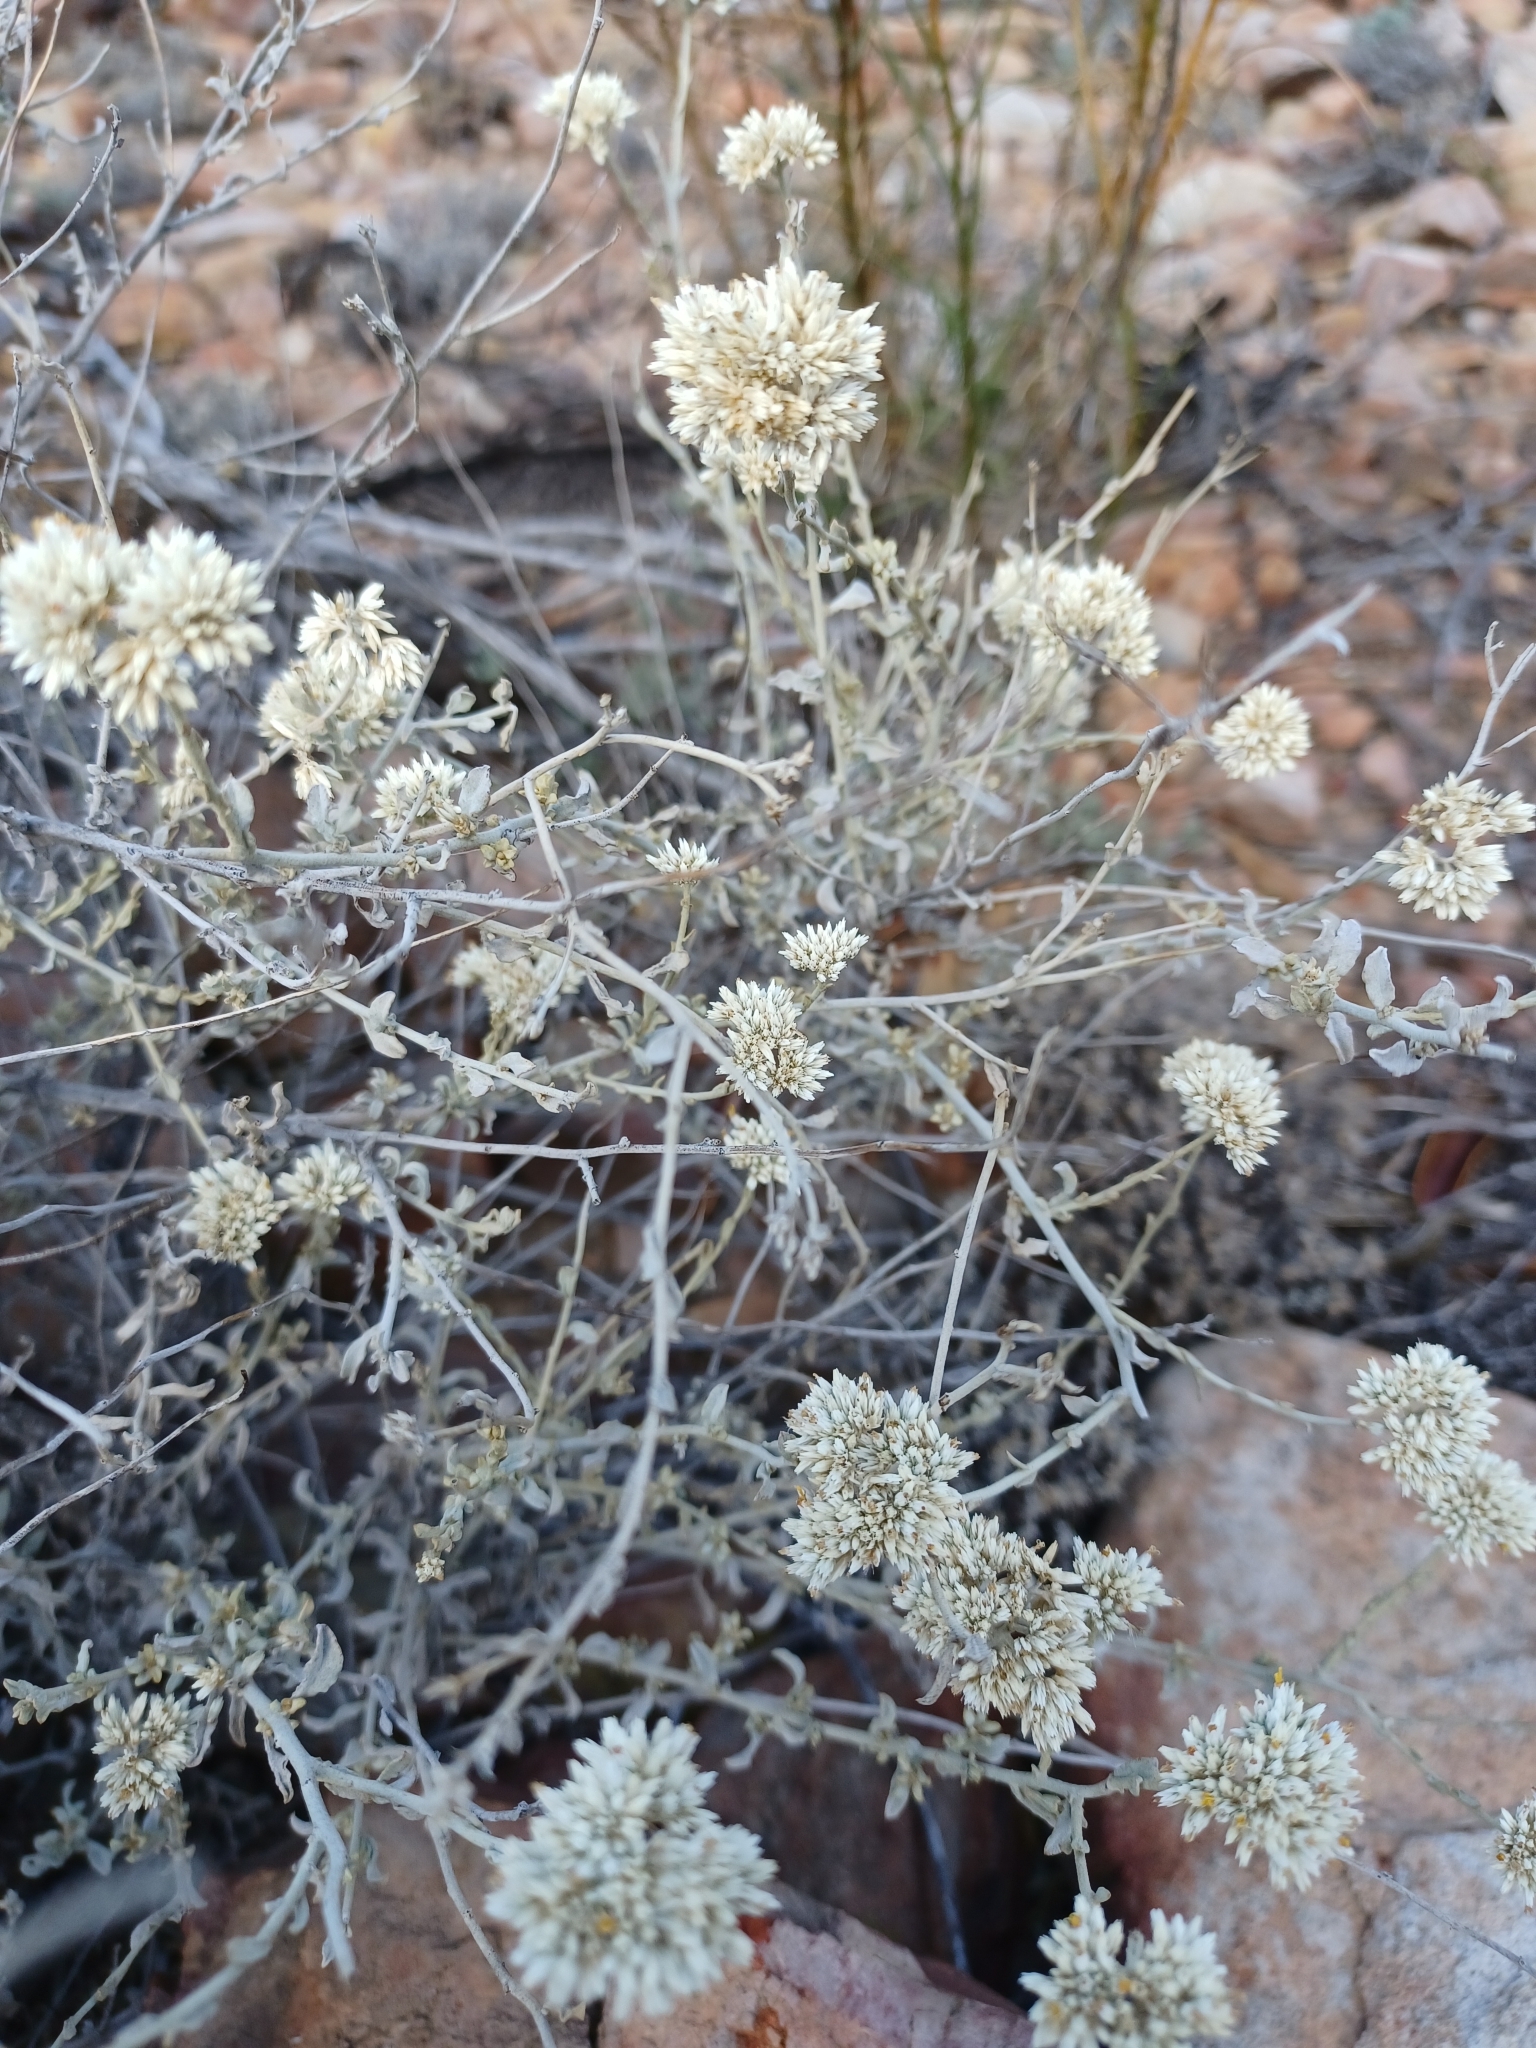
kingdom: Plantae
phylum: Tracheophyta
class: Magnoliopsida
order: Asterales
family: Asteraceae
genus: Helichrysum
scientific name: Helichrysum zeyheri
